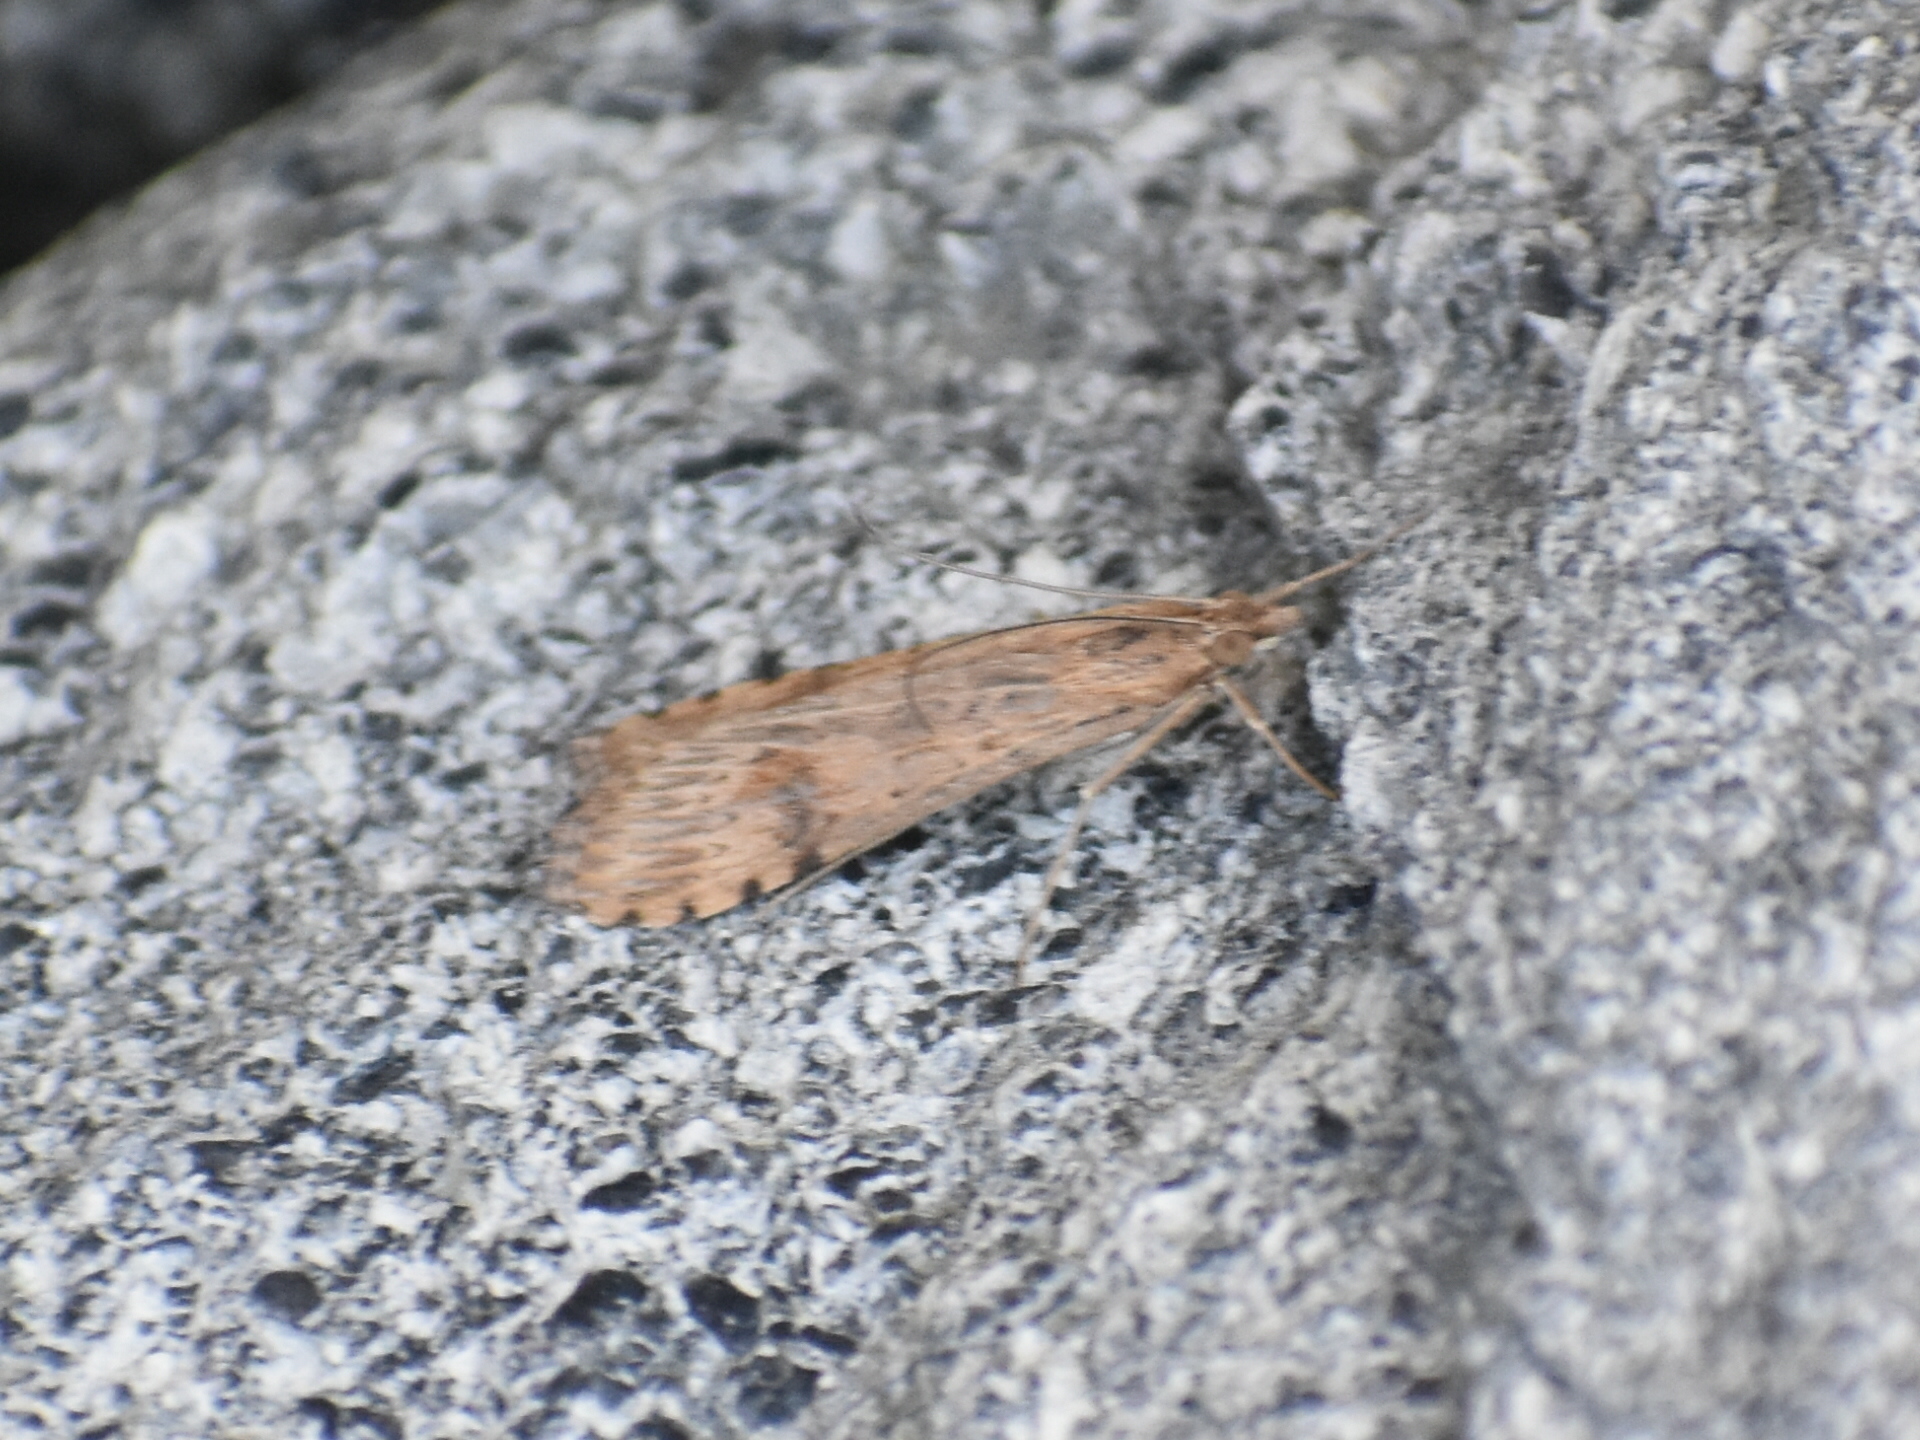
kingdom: Animalia
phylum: Arthropoda
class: Insecta
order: Lepidoptera
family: Crambidae
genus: Nomophila
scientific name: Nomophila nearctica
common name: American rush veneer
